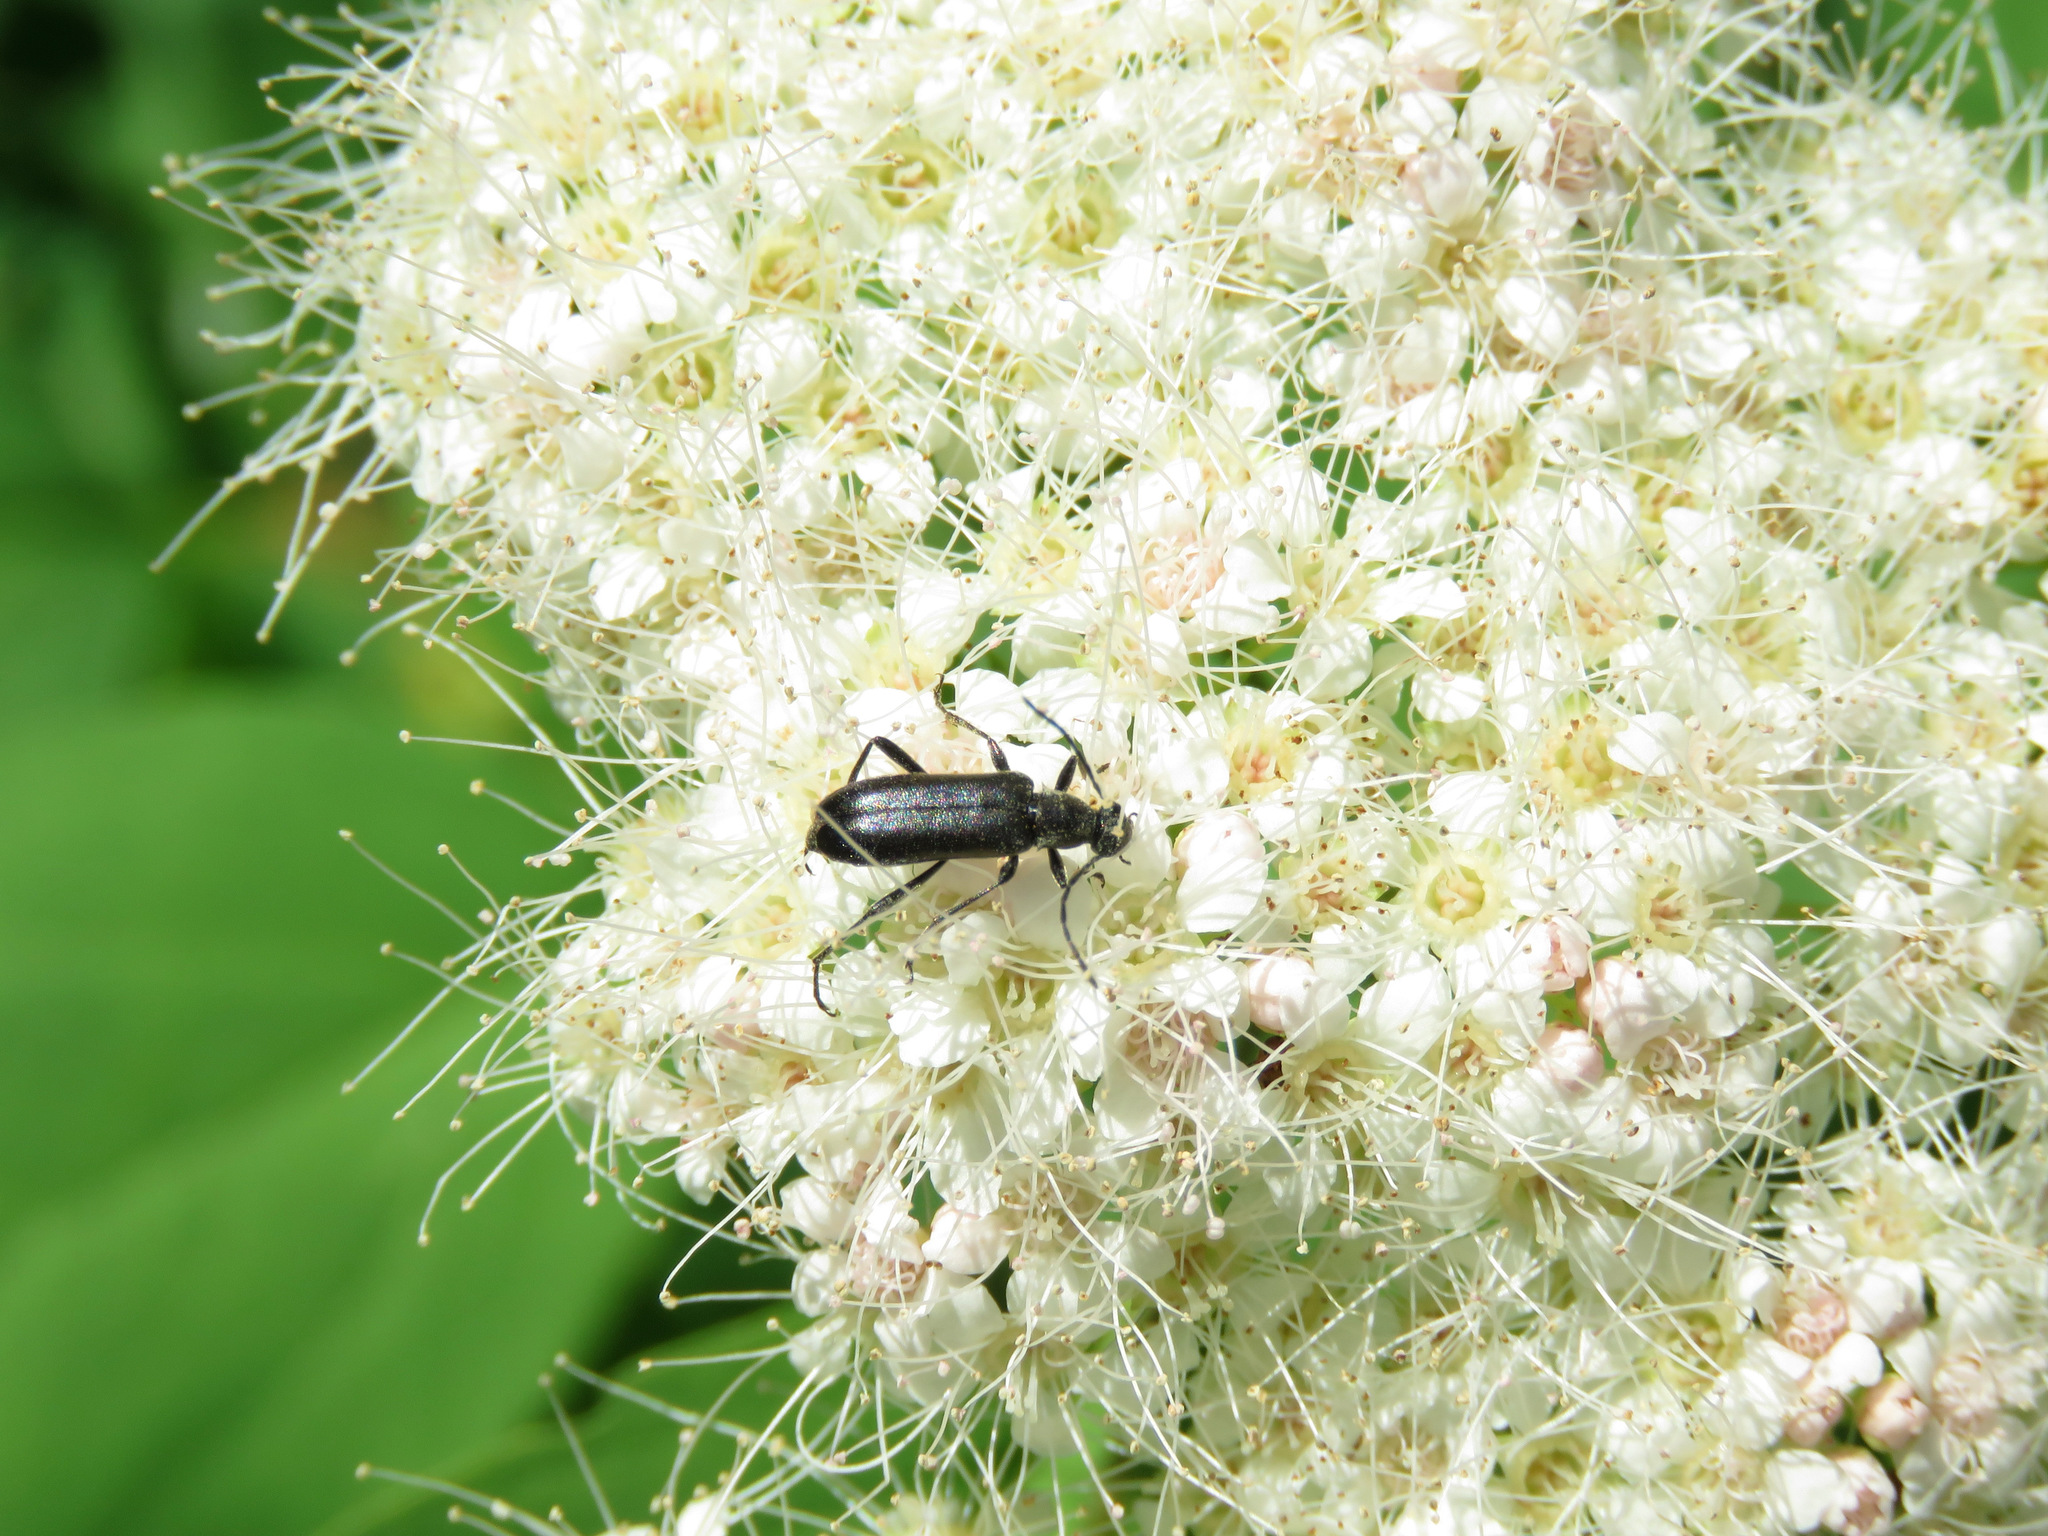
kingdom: Animalia
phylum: Arthropoda
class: Insecta
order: Coleoptera
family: Cerambycidae
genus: Grammoptera
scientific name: Grammoptera subargentata
